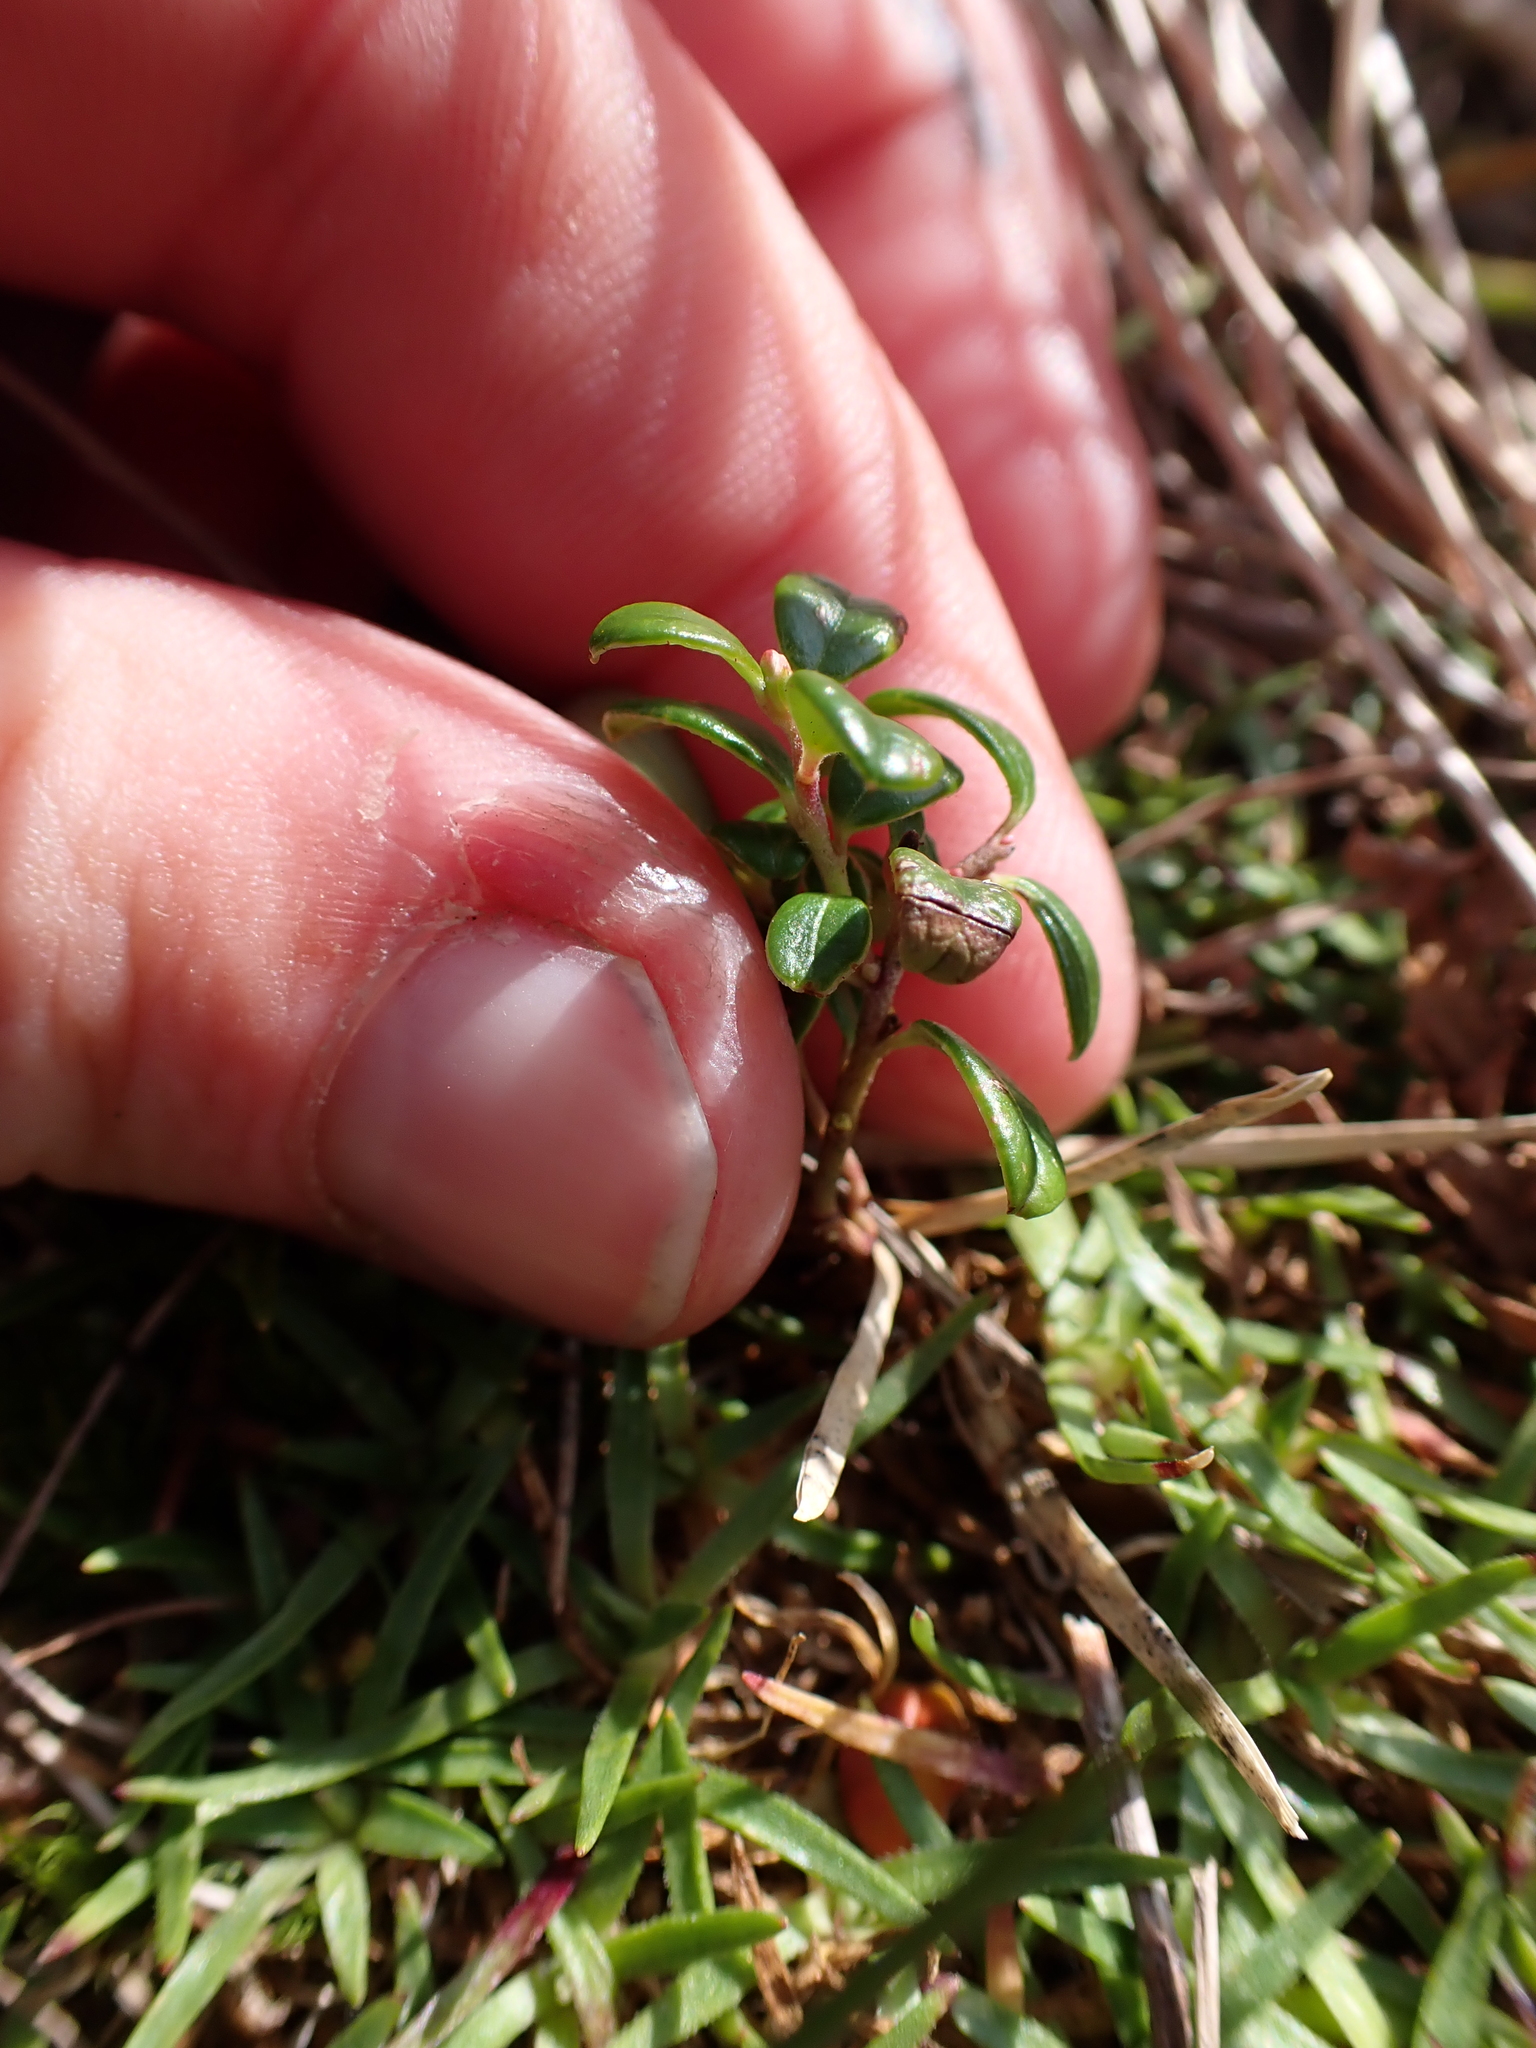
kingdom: Plantae
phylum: Tracheophyta
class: Magnoliopsida
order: Ericales
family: Ericaceae
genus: Vaccinium
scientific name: Vaccinium vitis-idaea
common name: Cowberry
